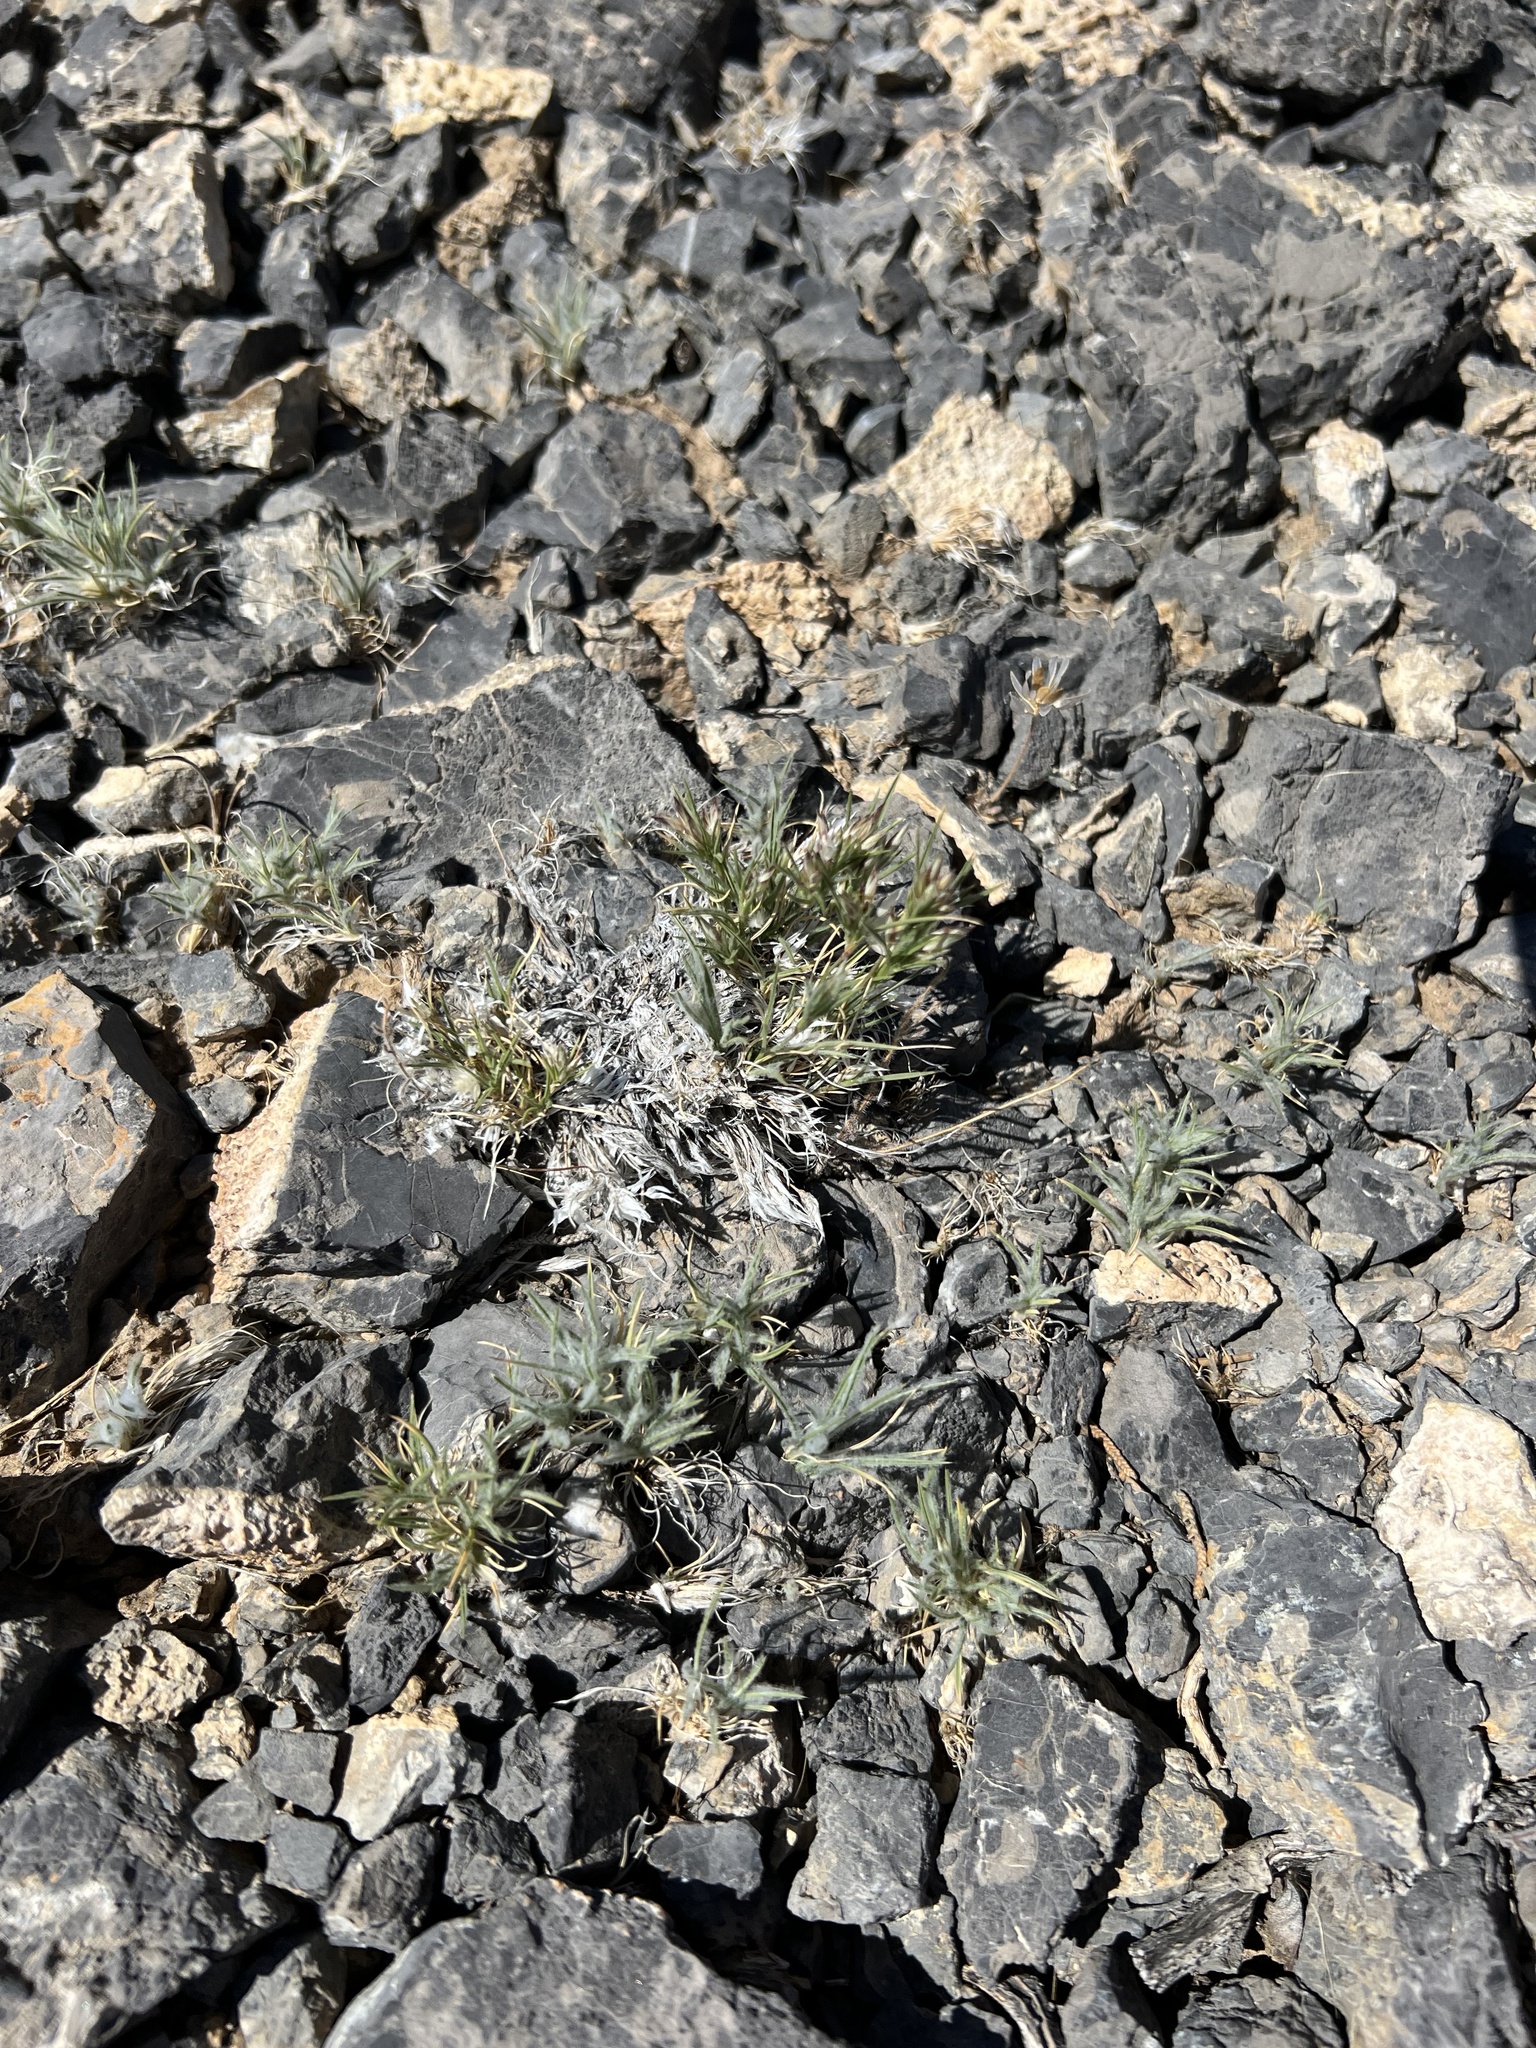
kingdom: Plantae
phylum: Tracheophyta
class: Liliopsida
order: Poales
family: Poaceae
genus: Dasyochloa
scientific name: Dasyochloa pulchella
